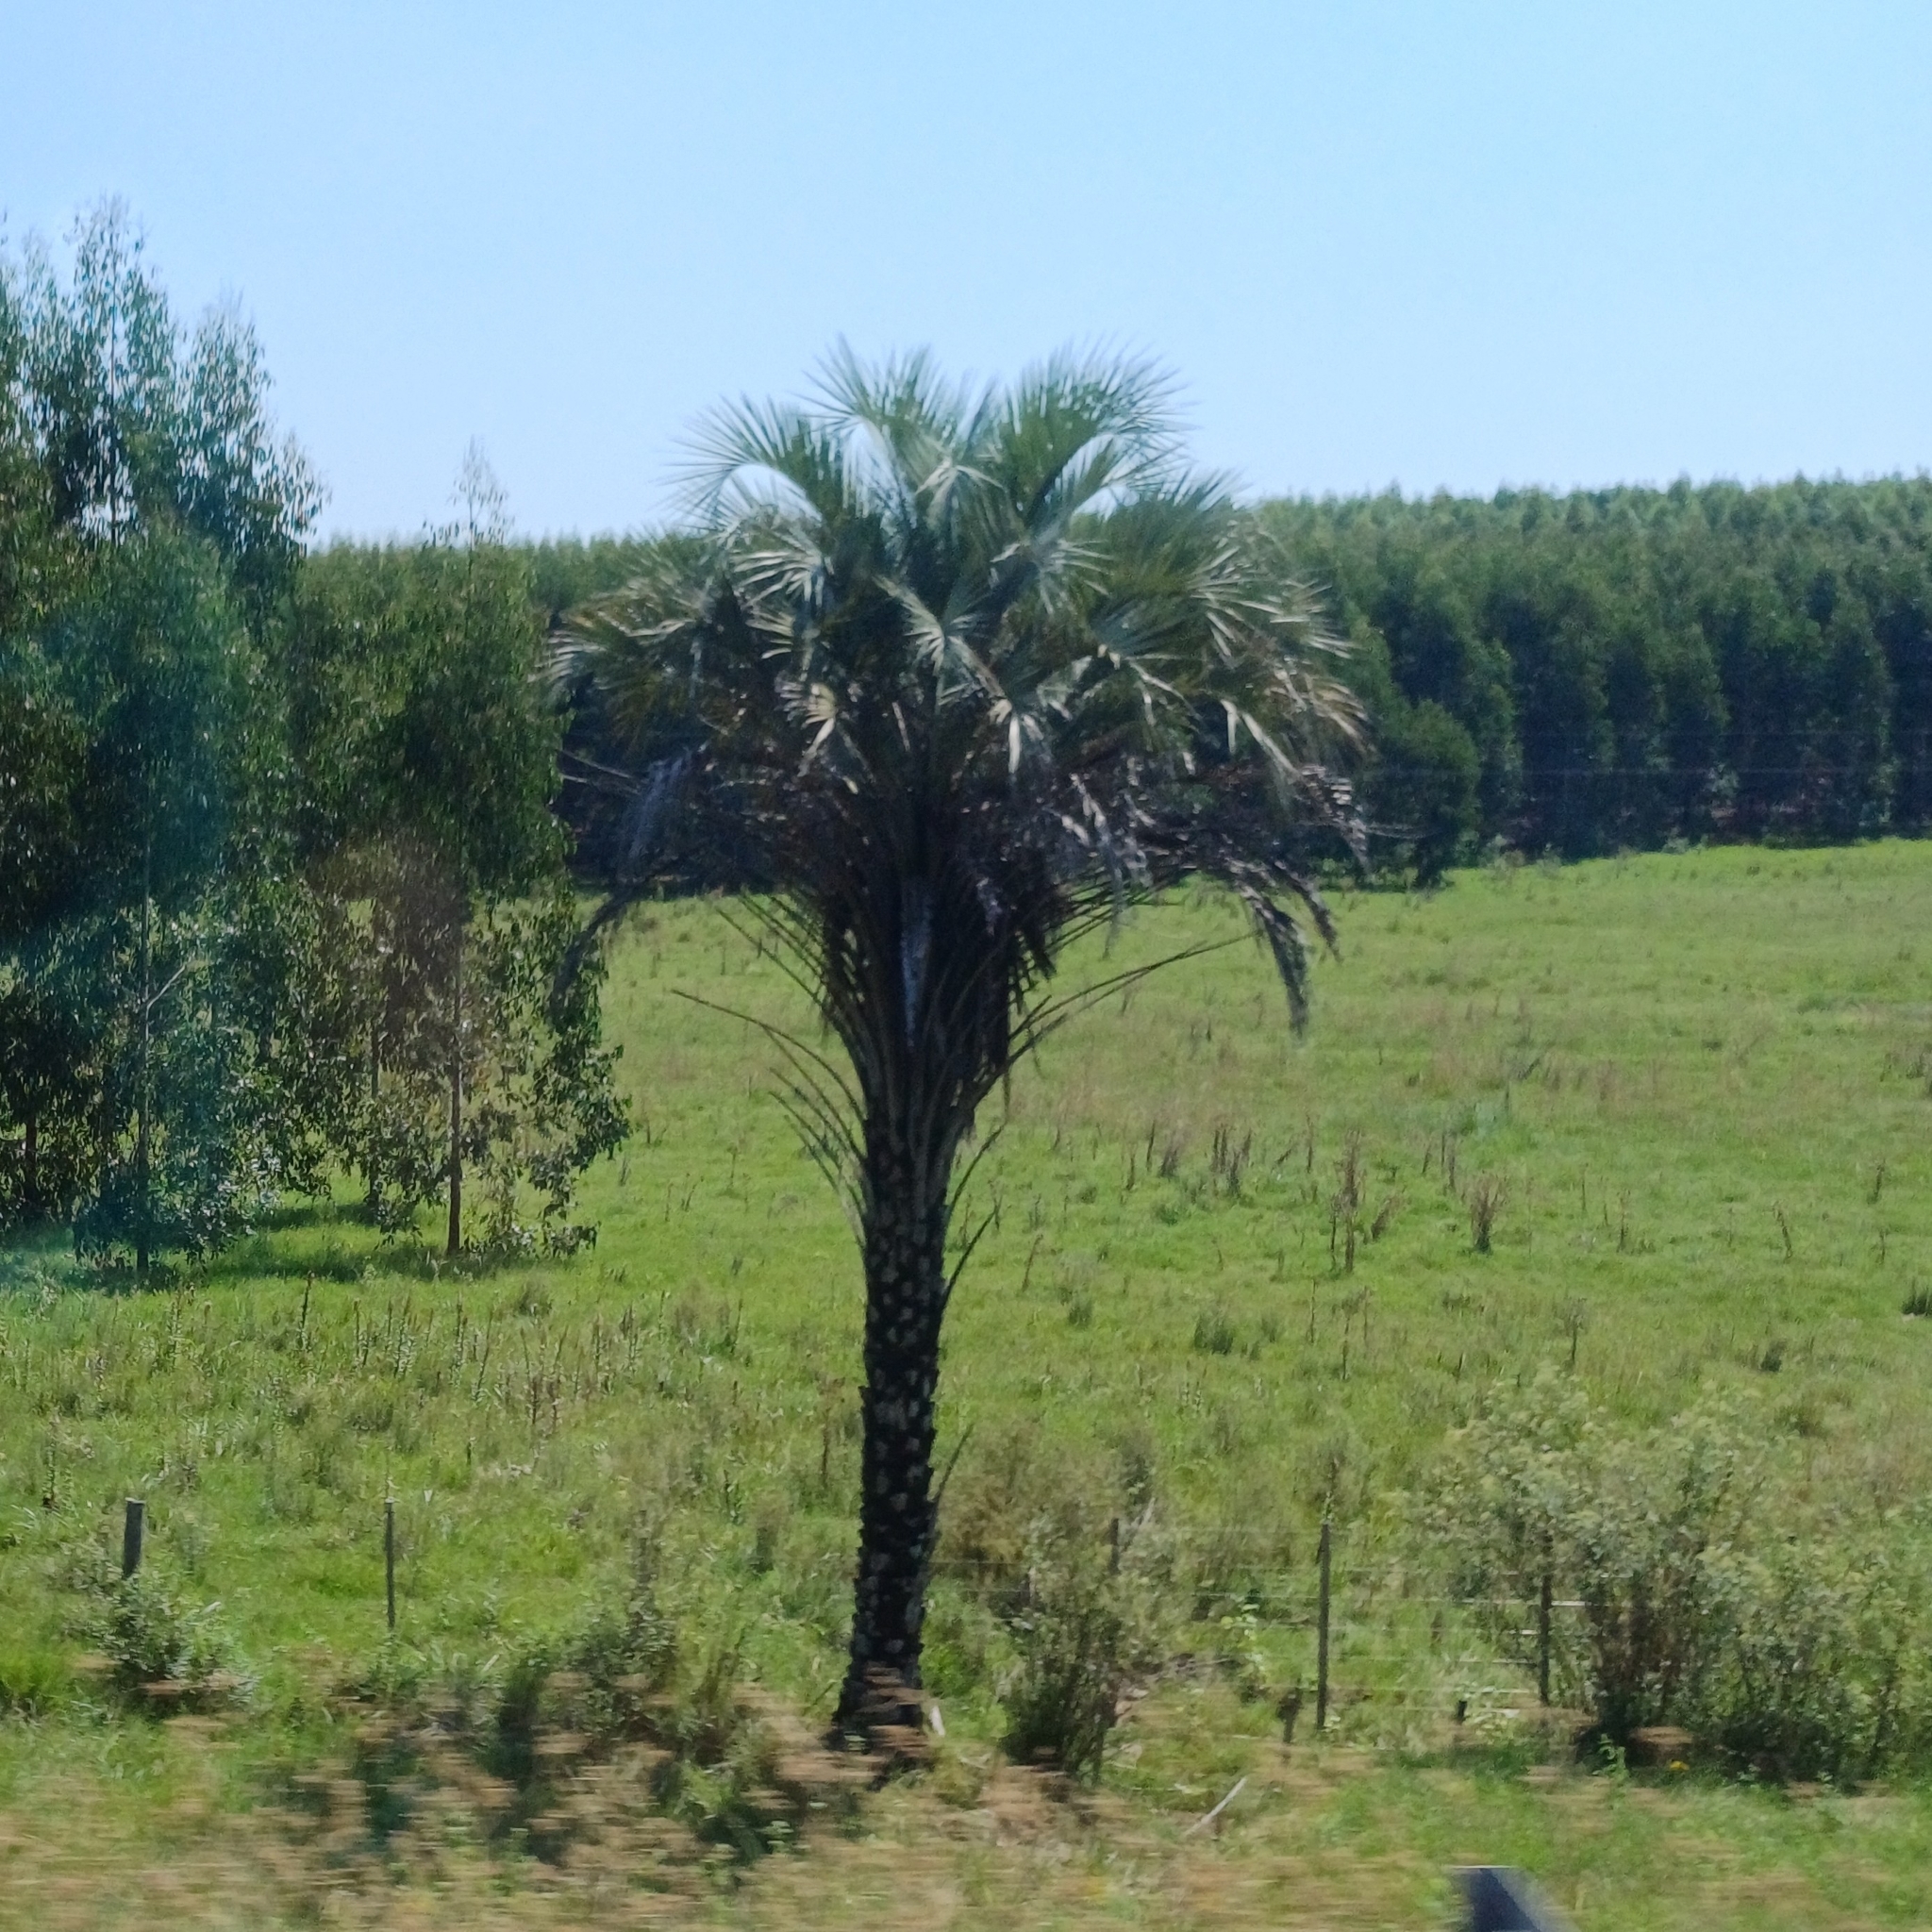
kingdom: Plantae
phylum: Tracheophyta
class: Liliopsida
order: Arecales
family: Arecaceae
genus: Butia
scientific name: Butia yatay
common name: Yatay palm
